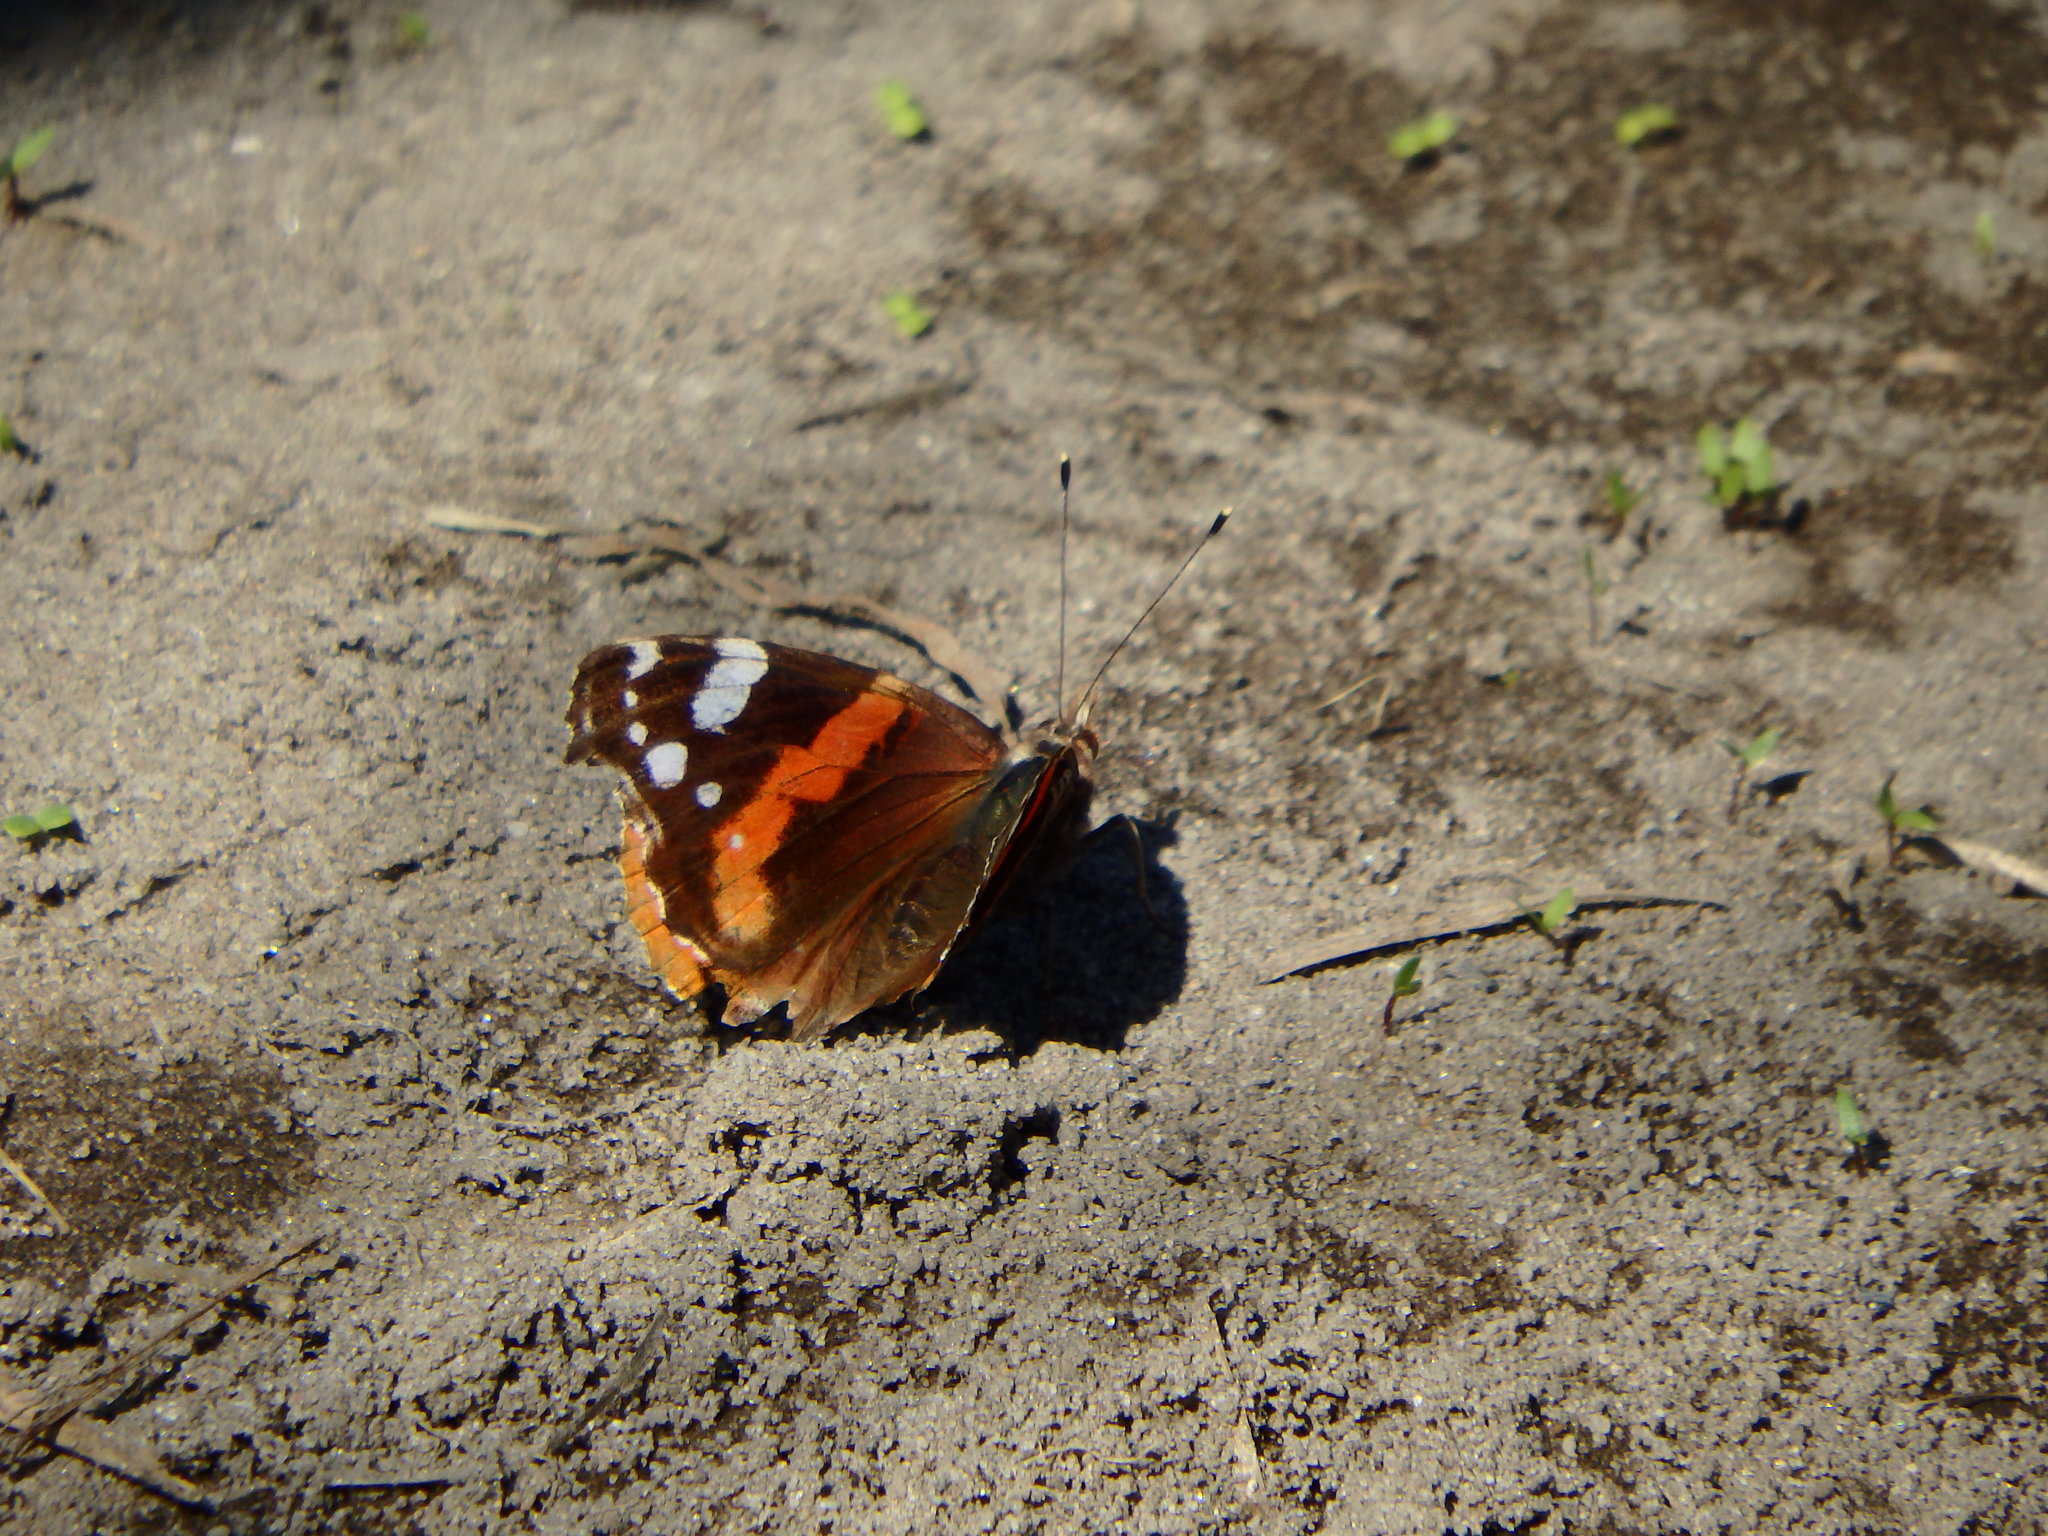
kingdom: Animalia
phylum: Arthropoda
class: Insecta
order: Lepidoptera
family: Nymphalidae
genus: Vanessa
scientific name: Vanessa atalanta
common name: Red admiral
